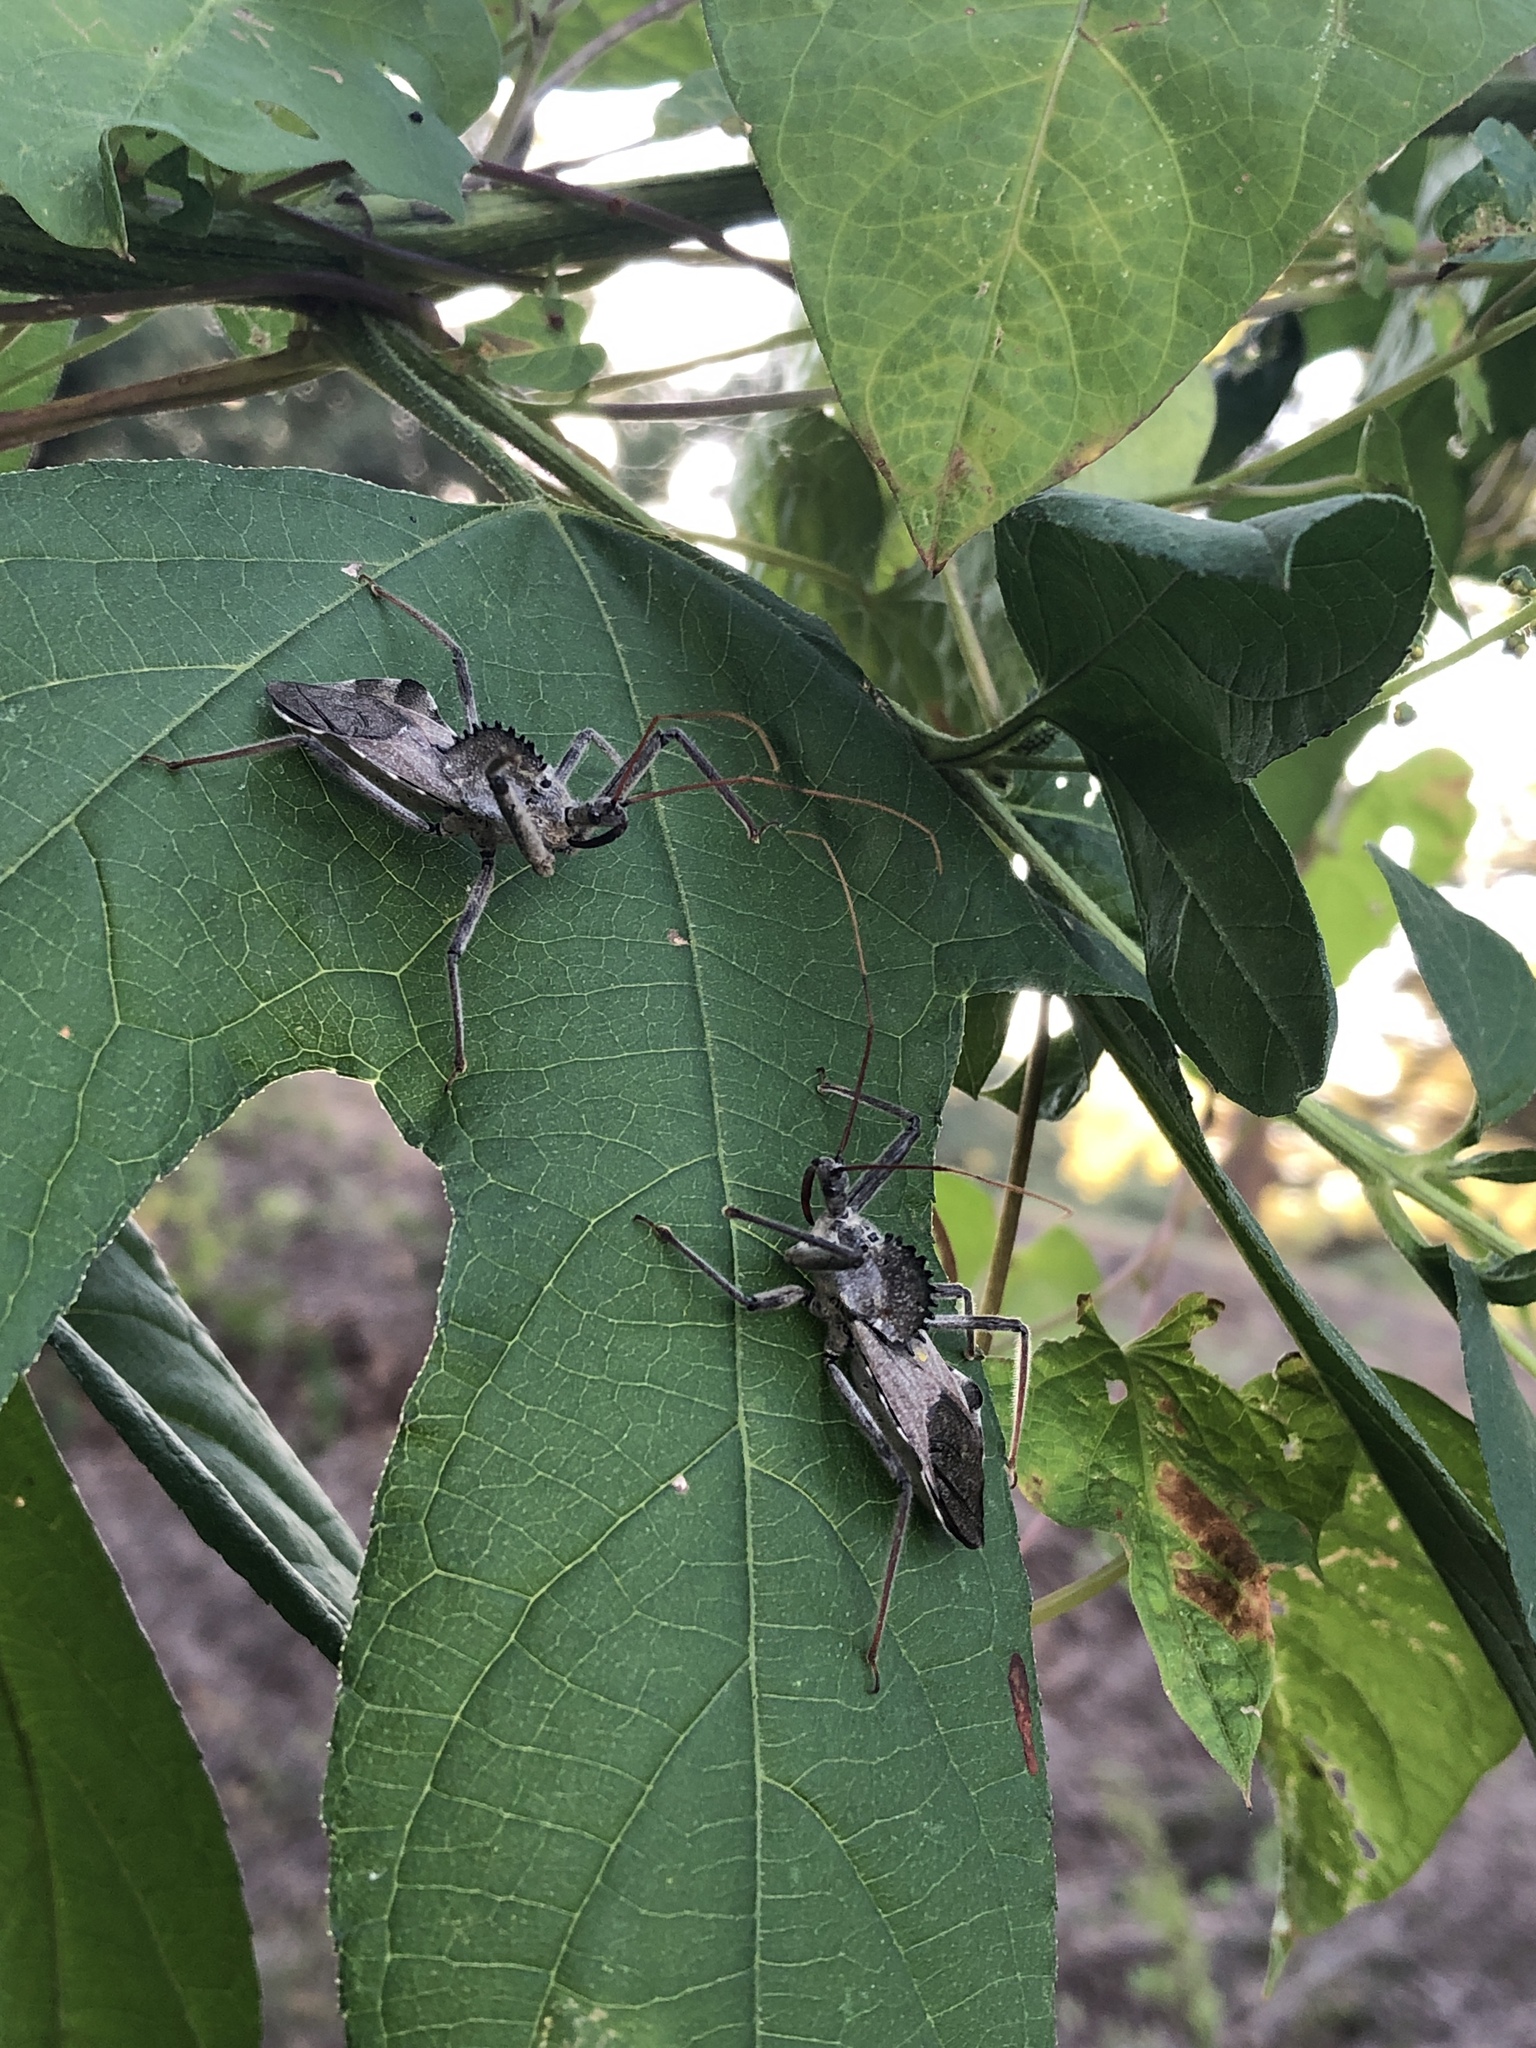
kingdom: Animalia
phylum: Arthropoda
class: Insecta
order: Hemiptera
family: Reduviidae
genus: Arilus
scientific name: Arilus cristatus
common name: North american wheel bug
